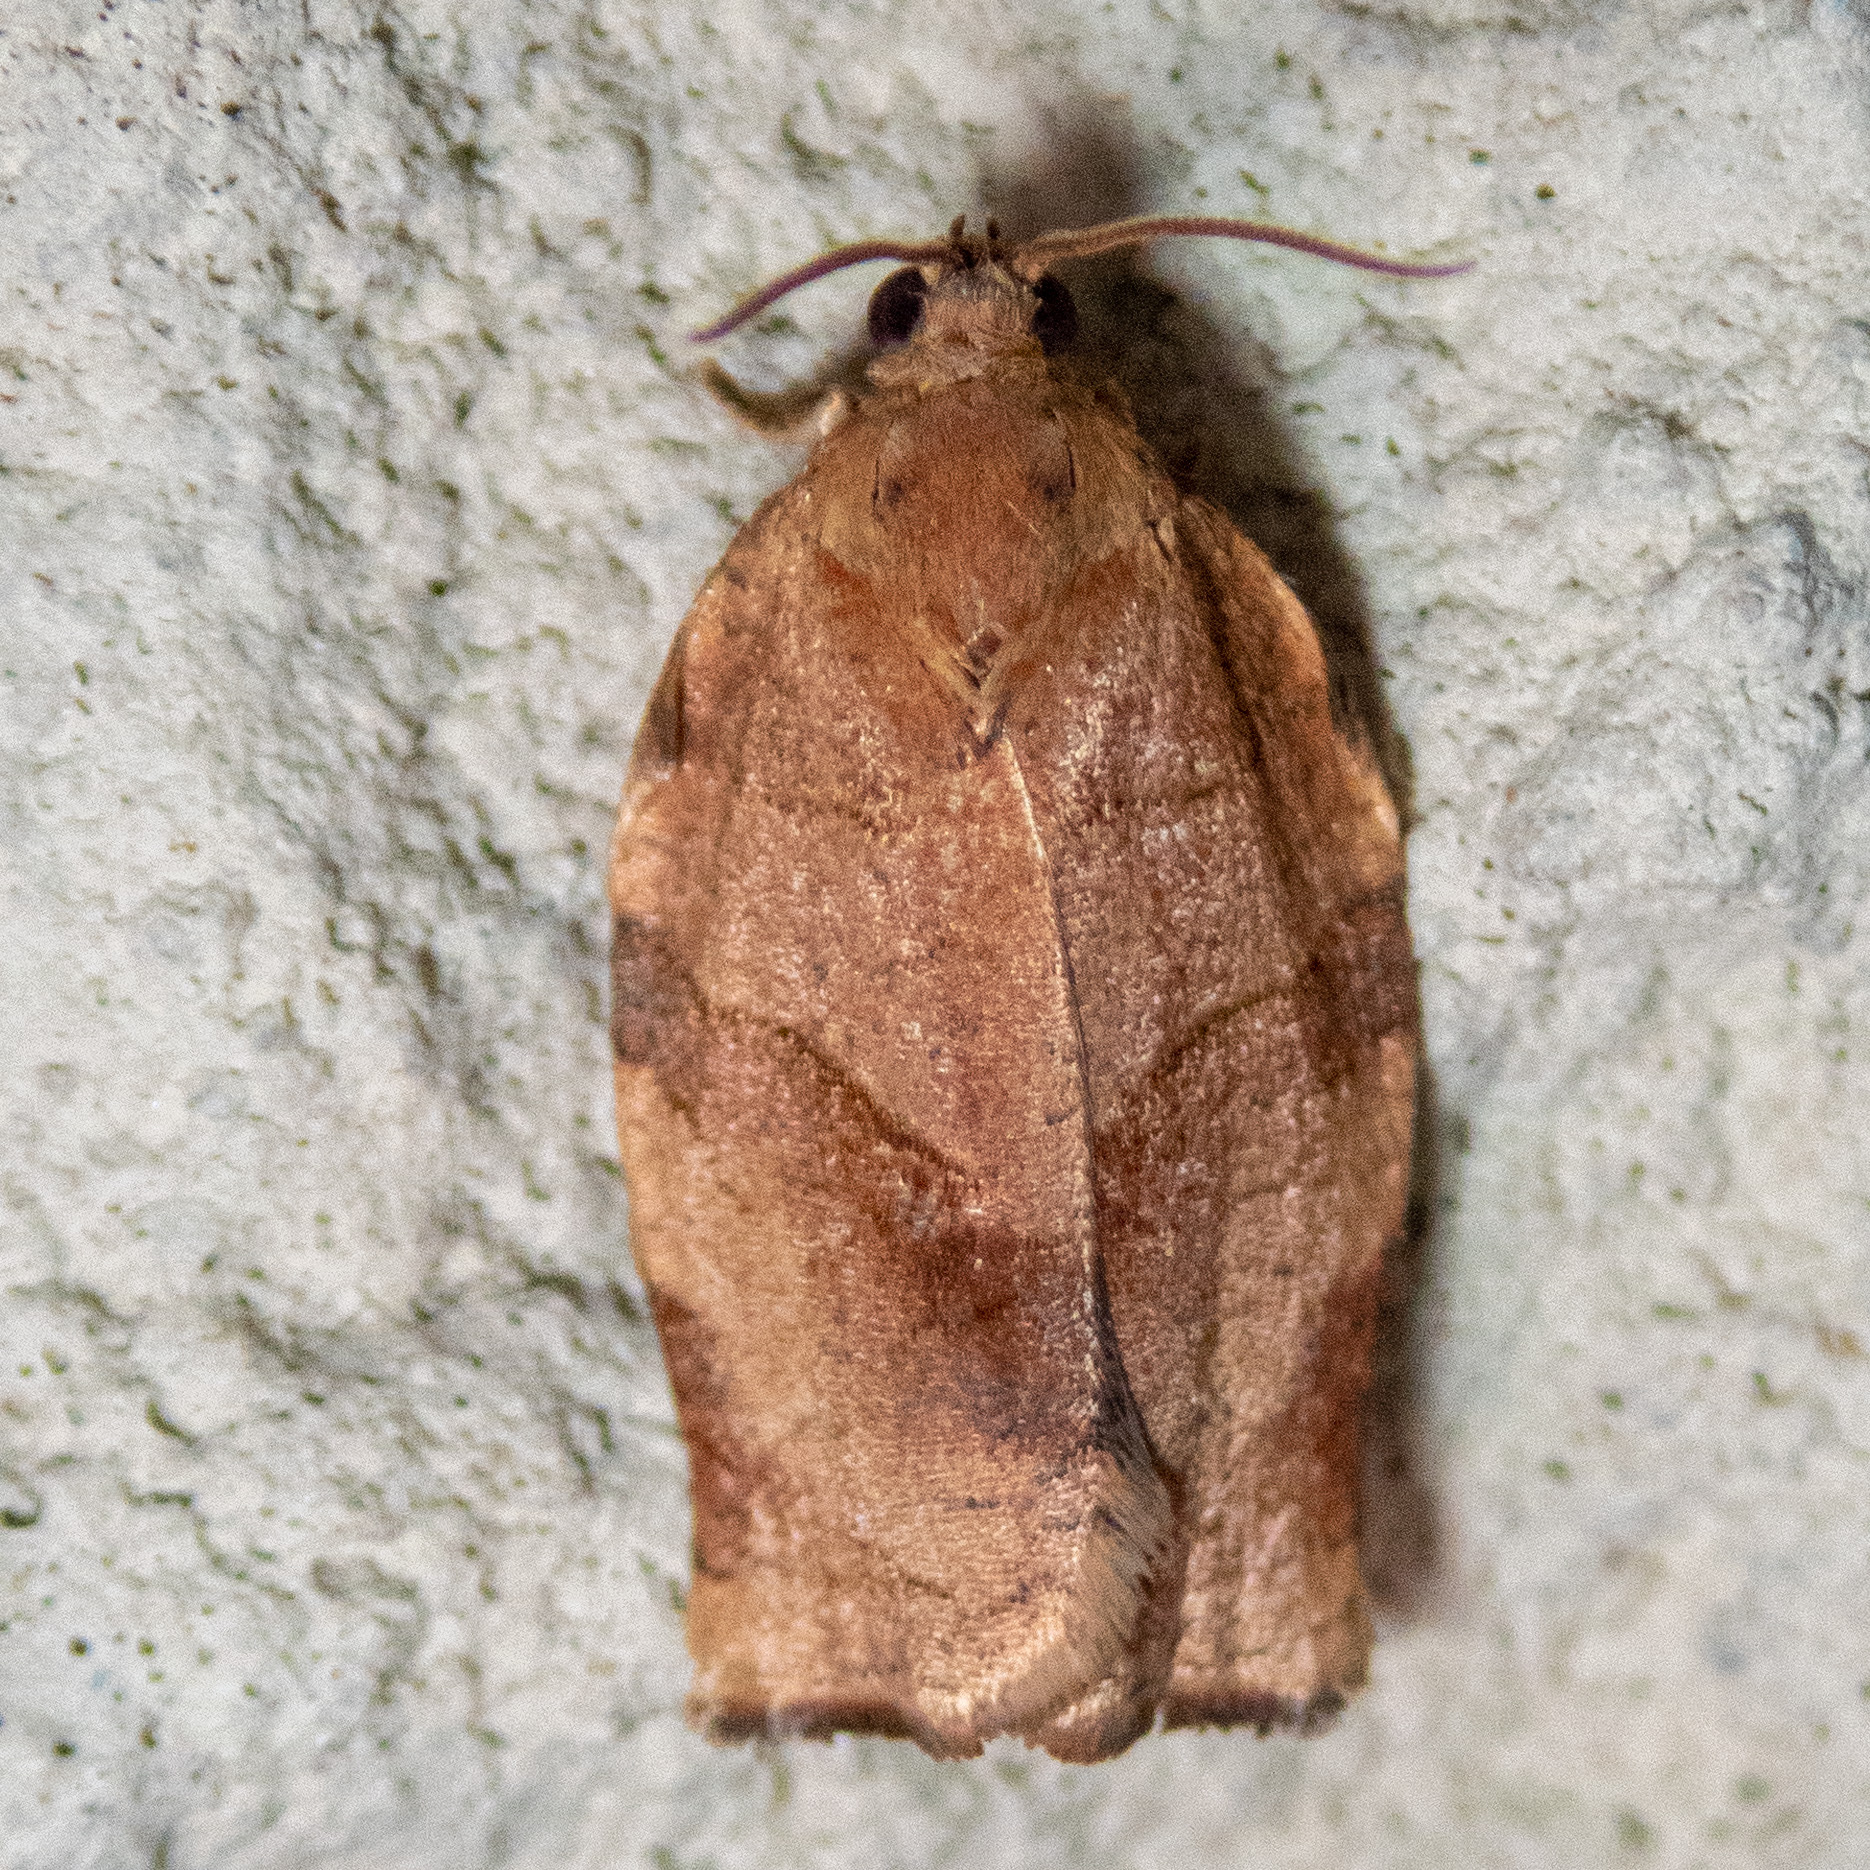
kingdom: Animalia
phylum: Arthropoda
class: Insecta
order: Lepidoptera
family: Tortricidae
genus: Choristoneura
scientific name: Choristoneura rosaceana
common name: Oblique-banded leafroller moth
